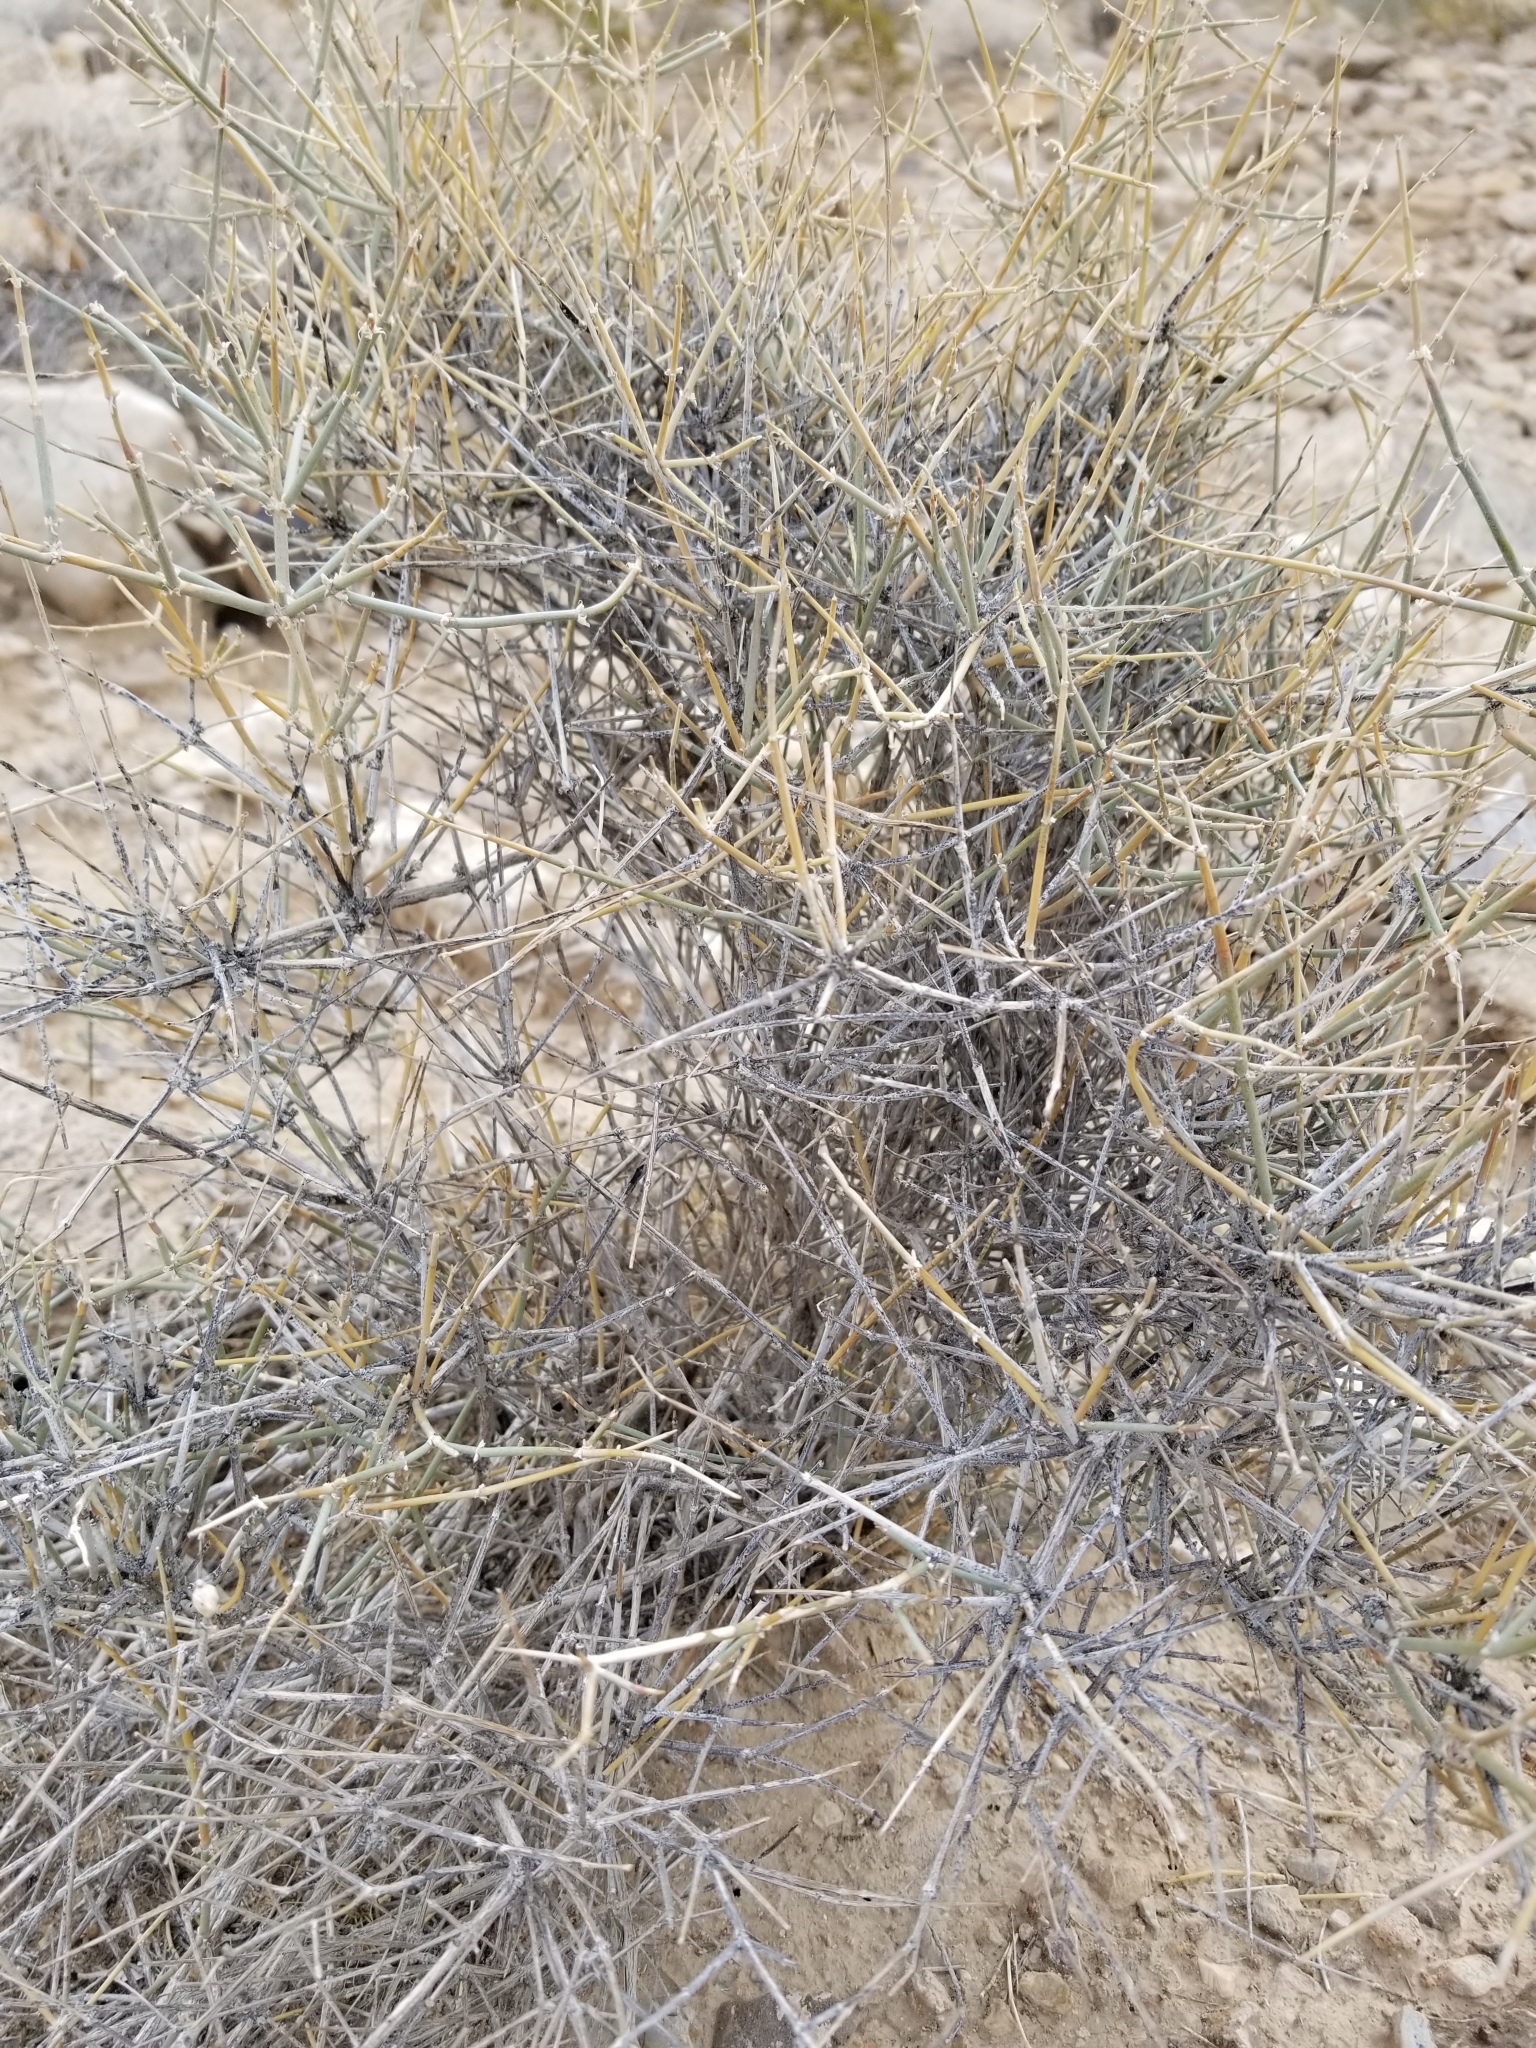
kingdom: Plantae
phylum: Tracheophyta
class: Gnetopsida
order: Ephedrales
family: Ephedraceae
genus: Ephedra
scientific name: Ephedra nevadensis
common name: Gray ephedra
